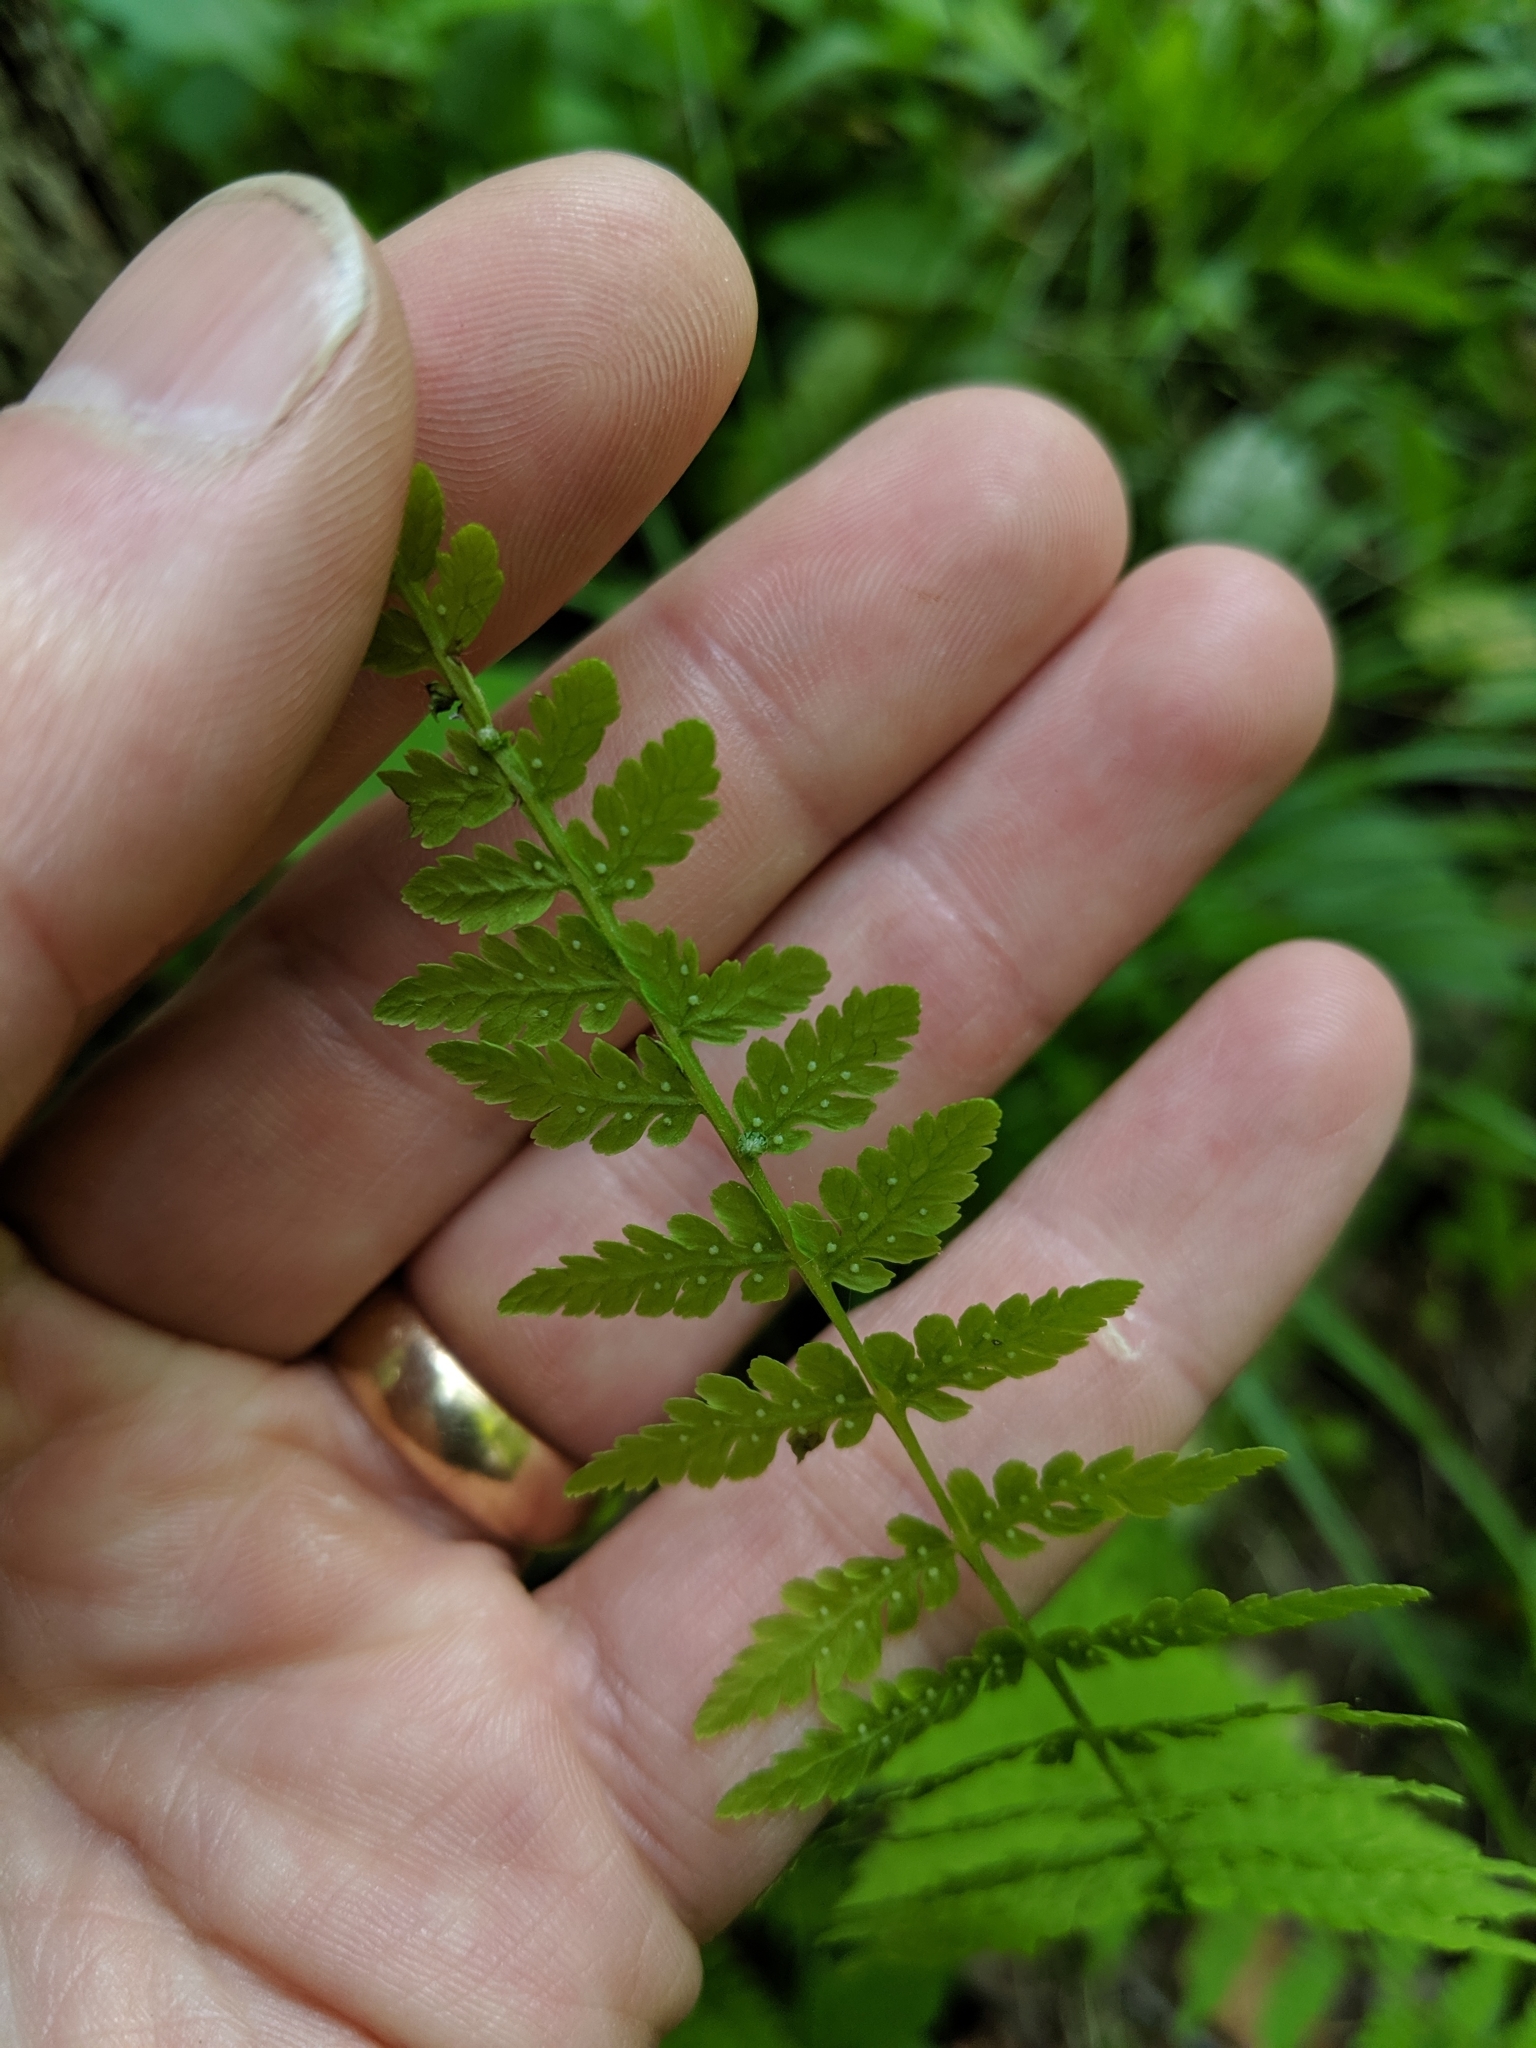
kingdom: Plantae
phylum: Tracheophyta
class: Polypodiopsida
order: Polypodiales
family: Cystopteridaceae
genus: Cystopteris
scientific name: Cystopteris bulbifera
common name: Bulblet bladder fern
